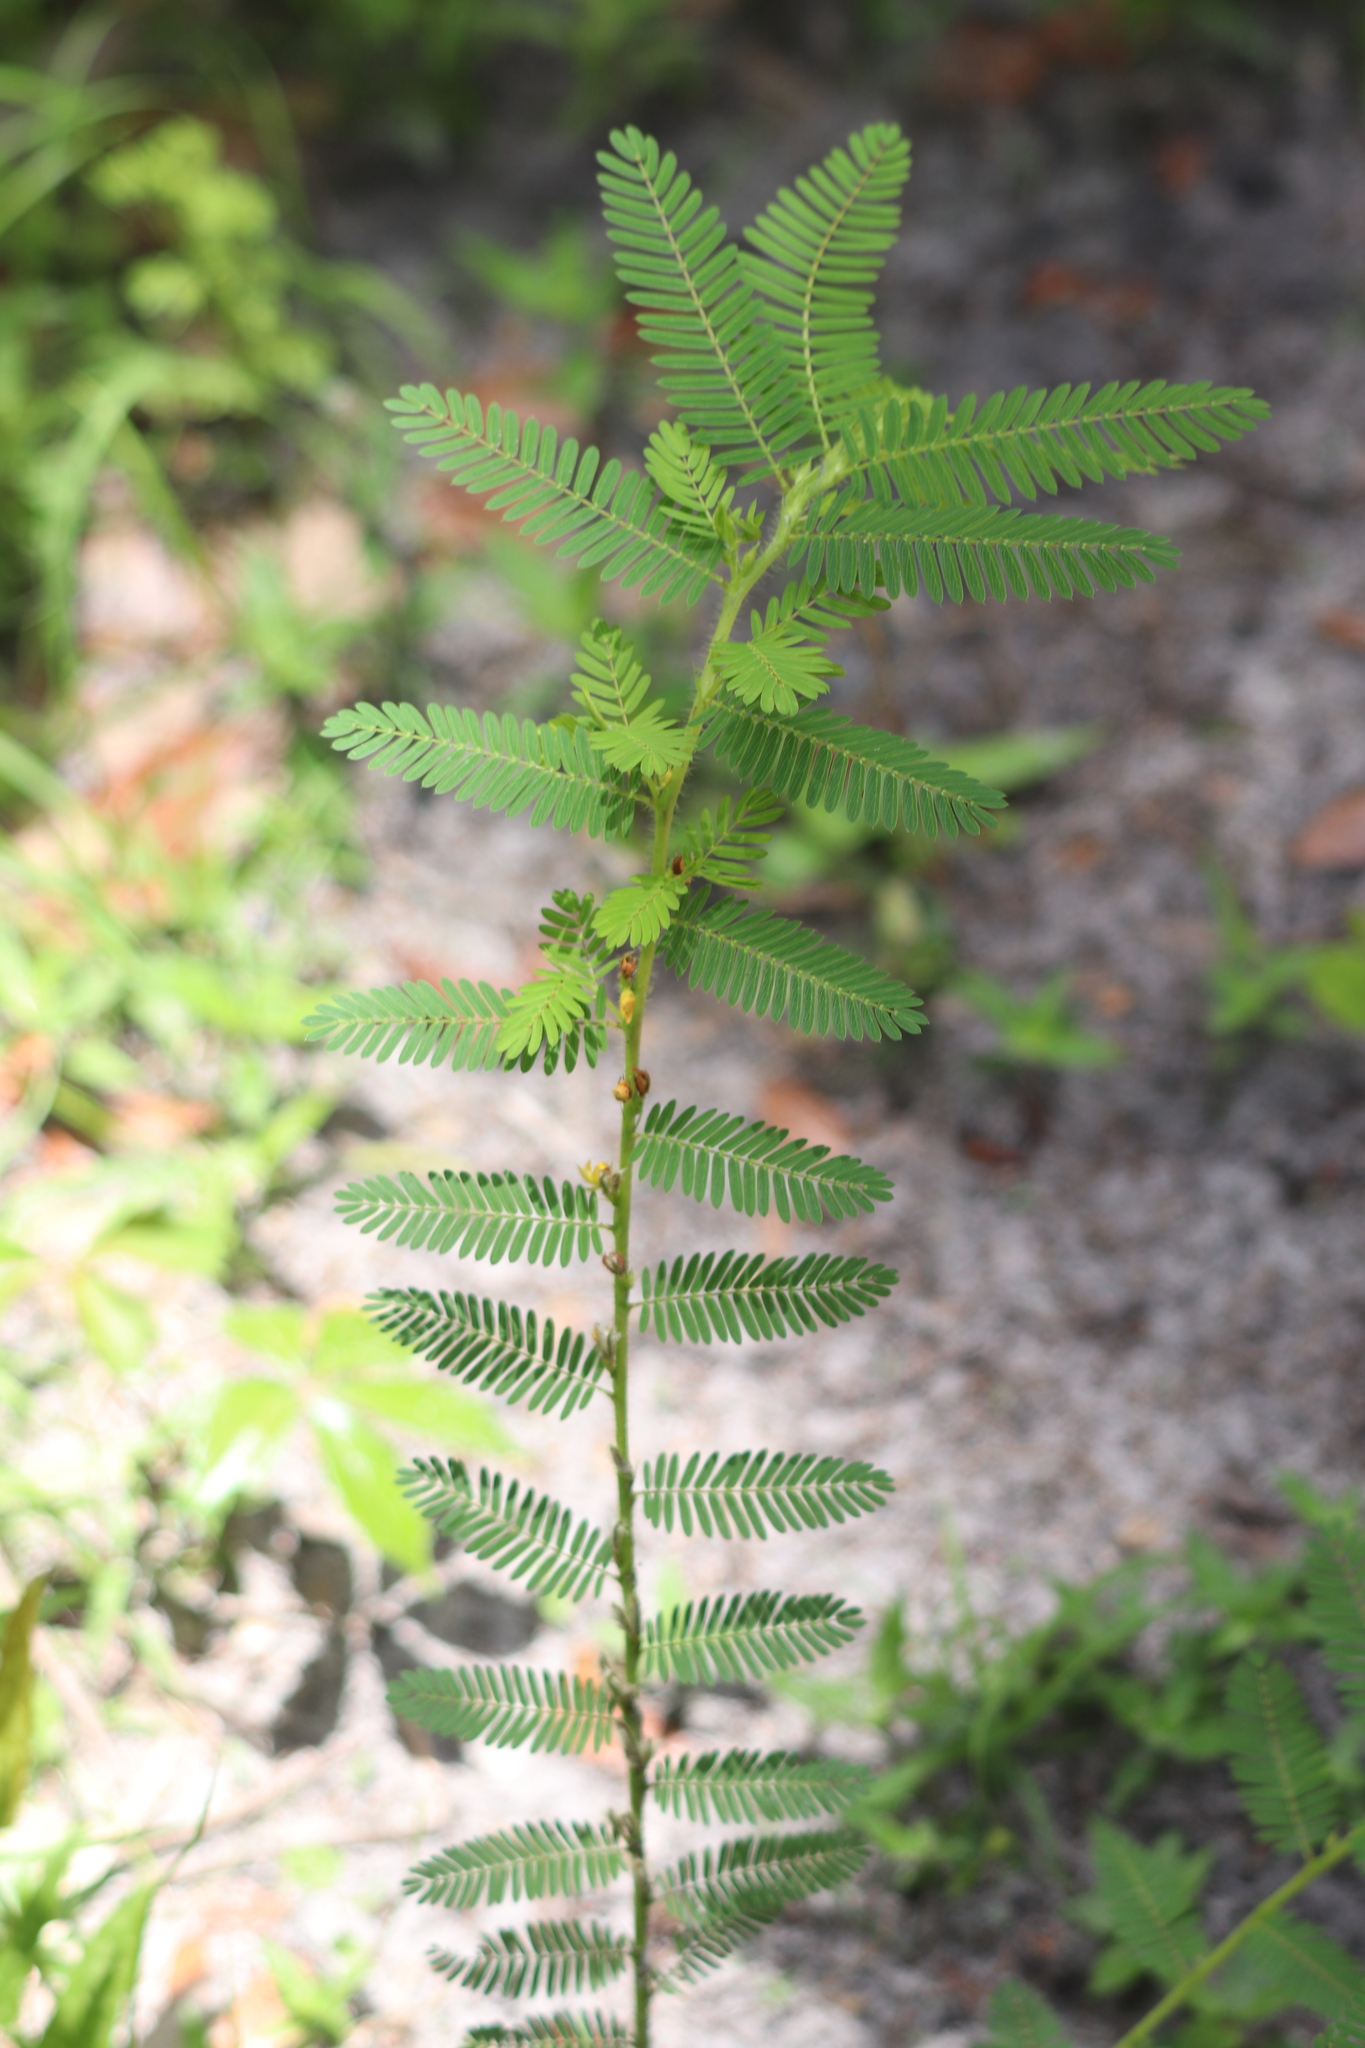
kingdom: Plantae
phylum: Tracheophyta
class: Magnoliopsida
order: Fabales
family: Fabaceae
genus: Chamaecrista
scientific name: Chamaecrista nictitans
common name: Sensitive cassia
